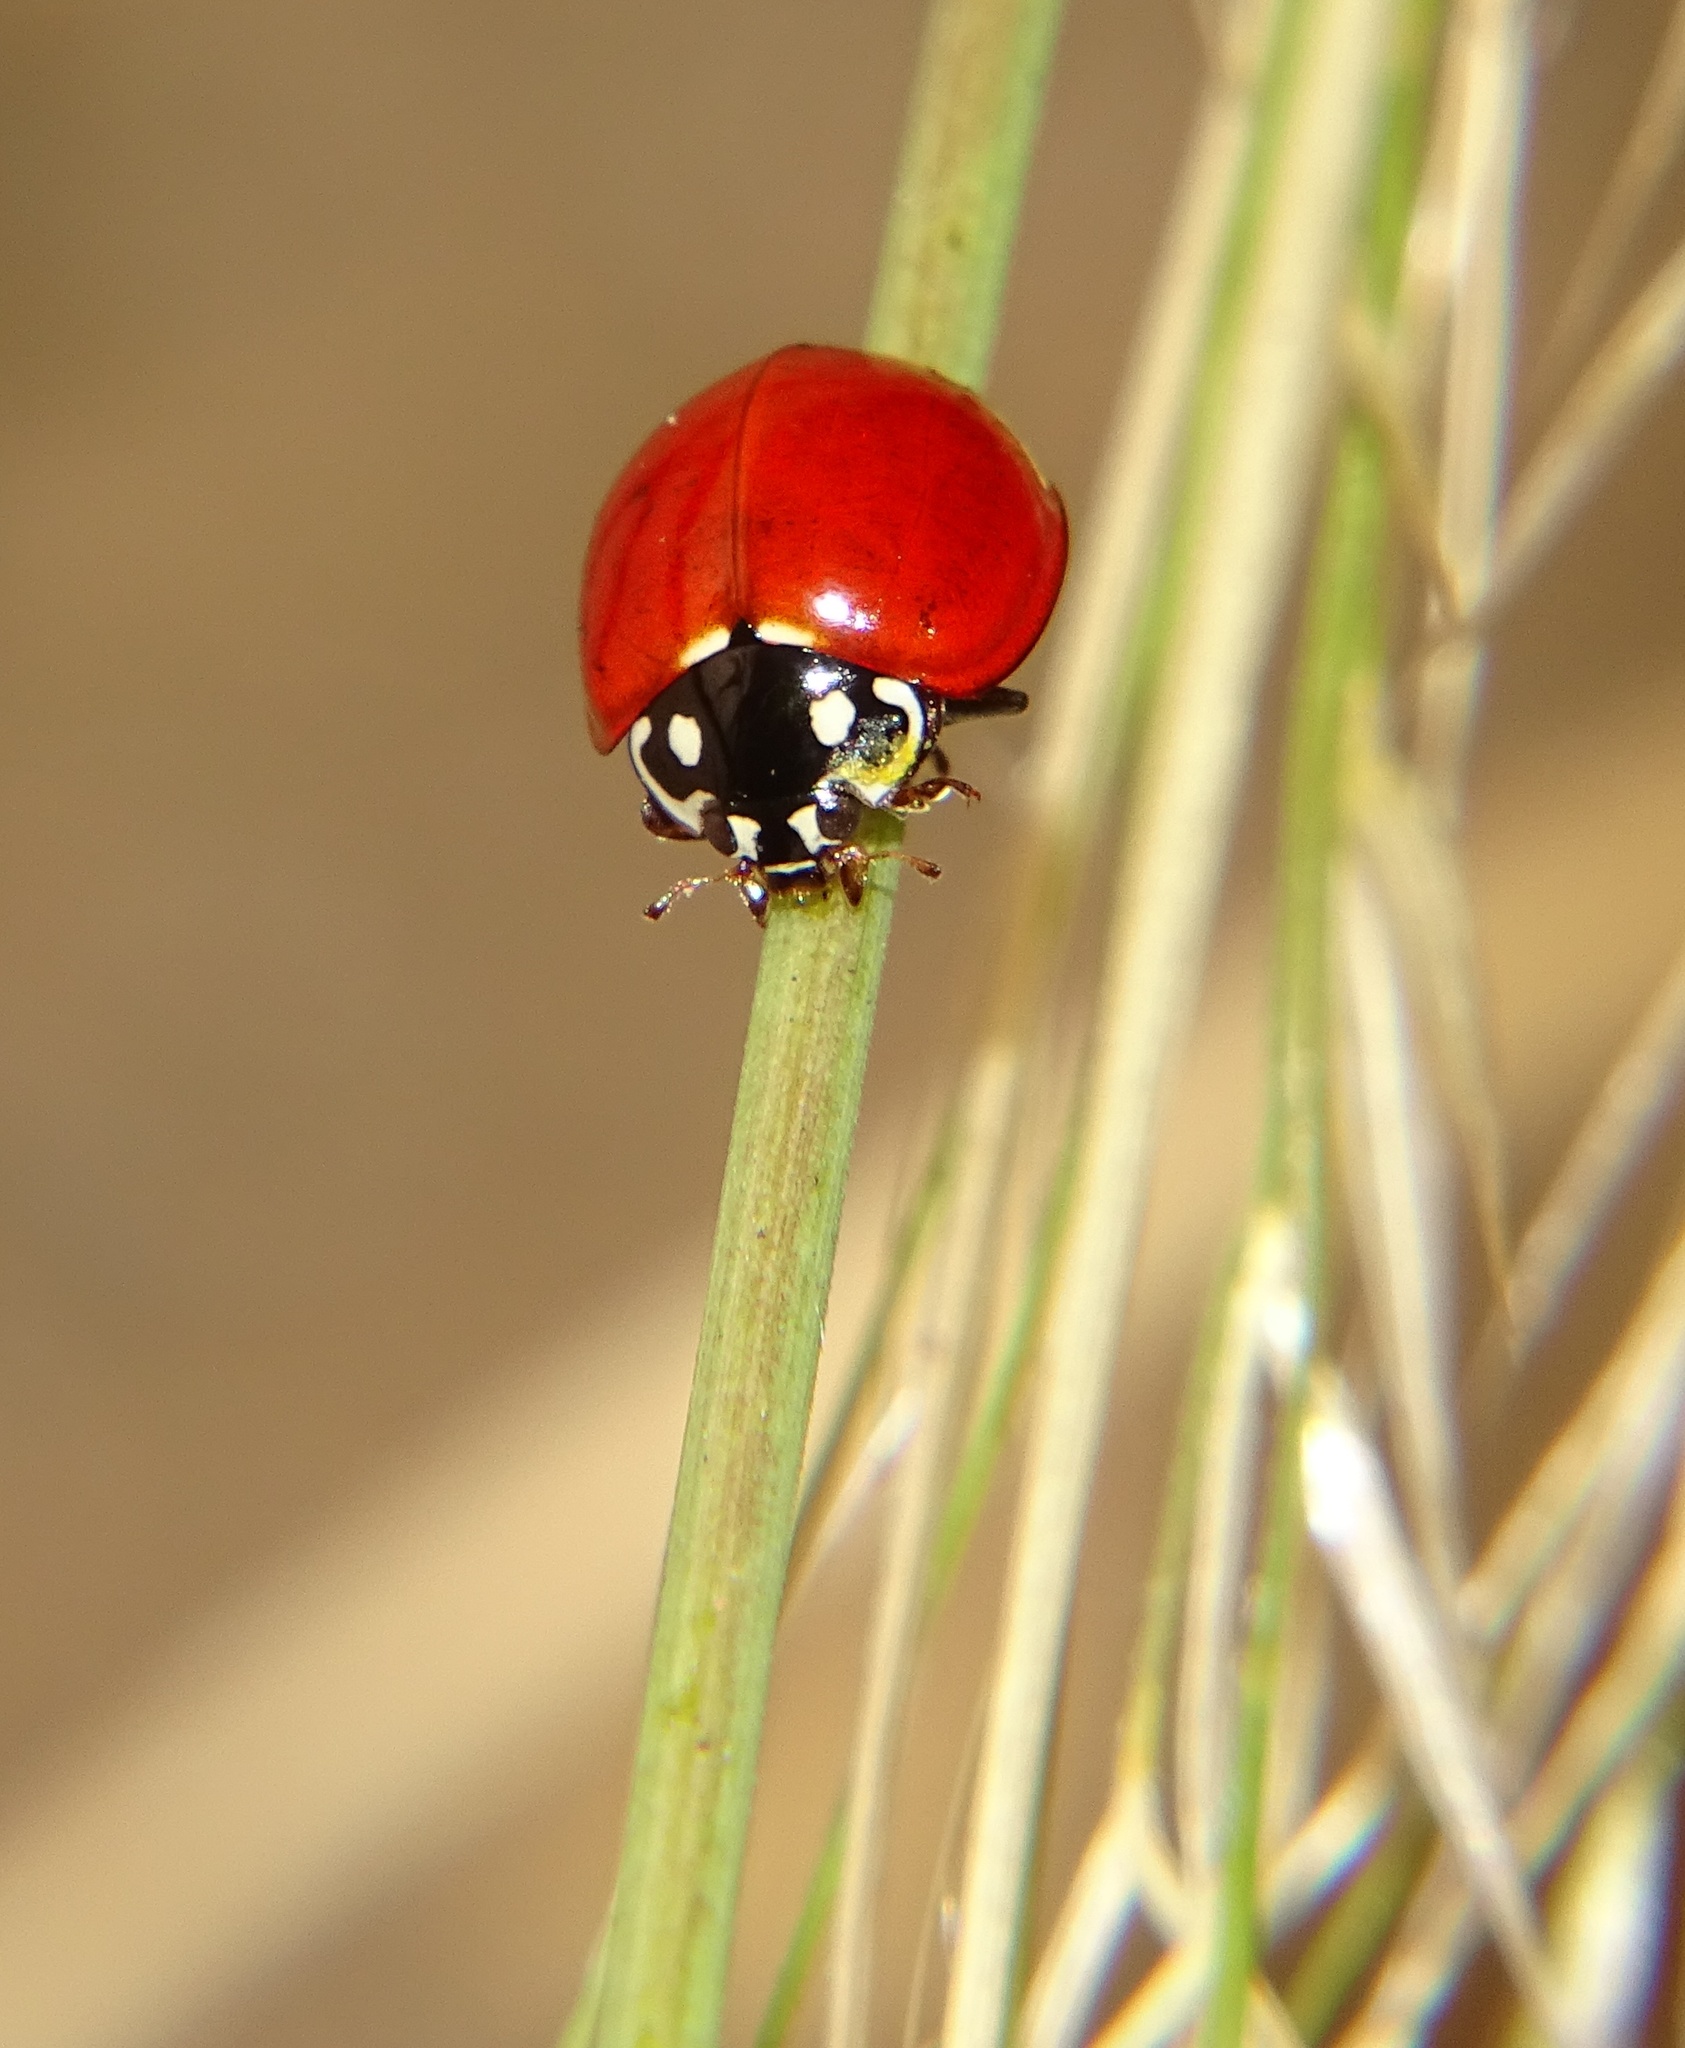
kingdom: Animalia
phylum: Arthropoda
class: Insecta
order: Coleoptera
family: Coccinellidae
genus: Cycloneda
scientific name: Cycloneda sanguinea
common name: Ladybird beetle
